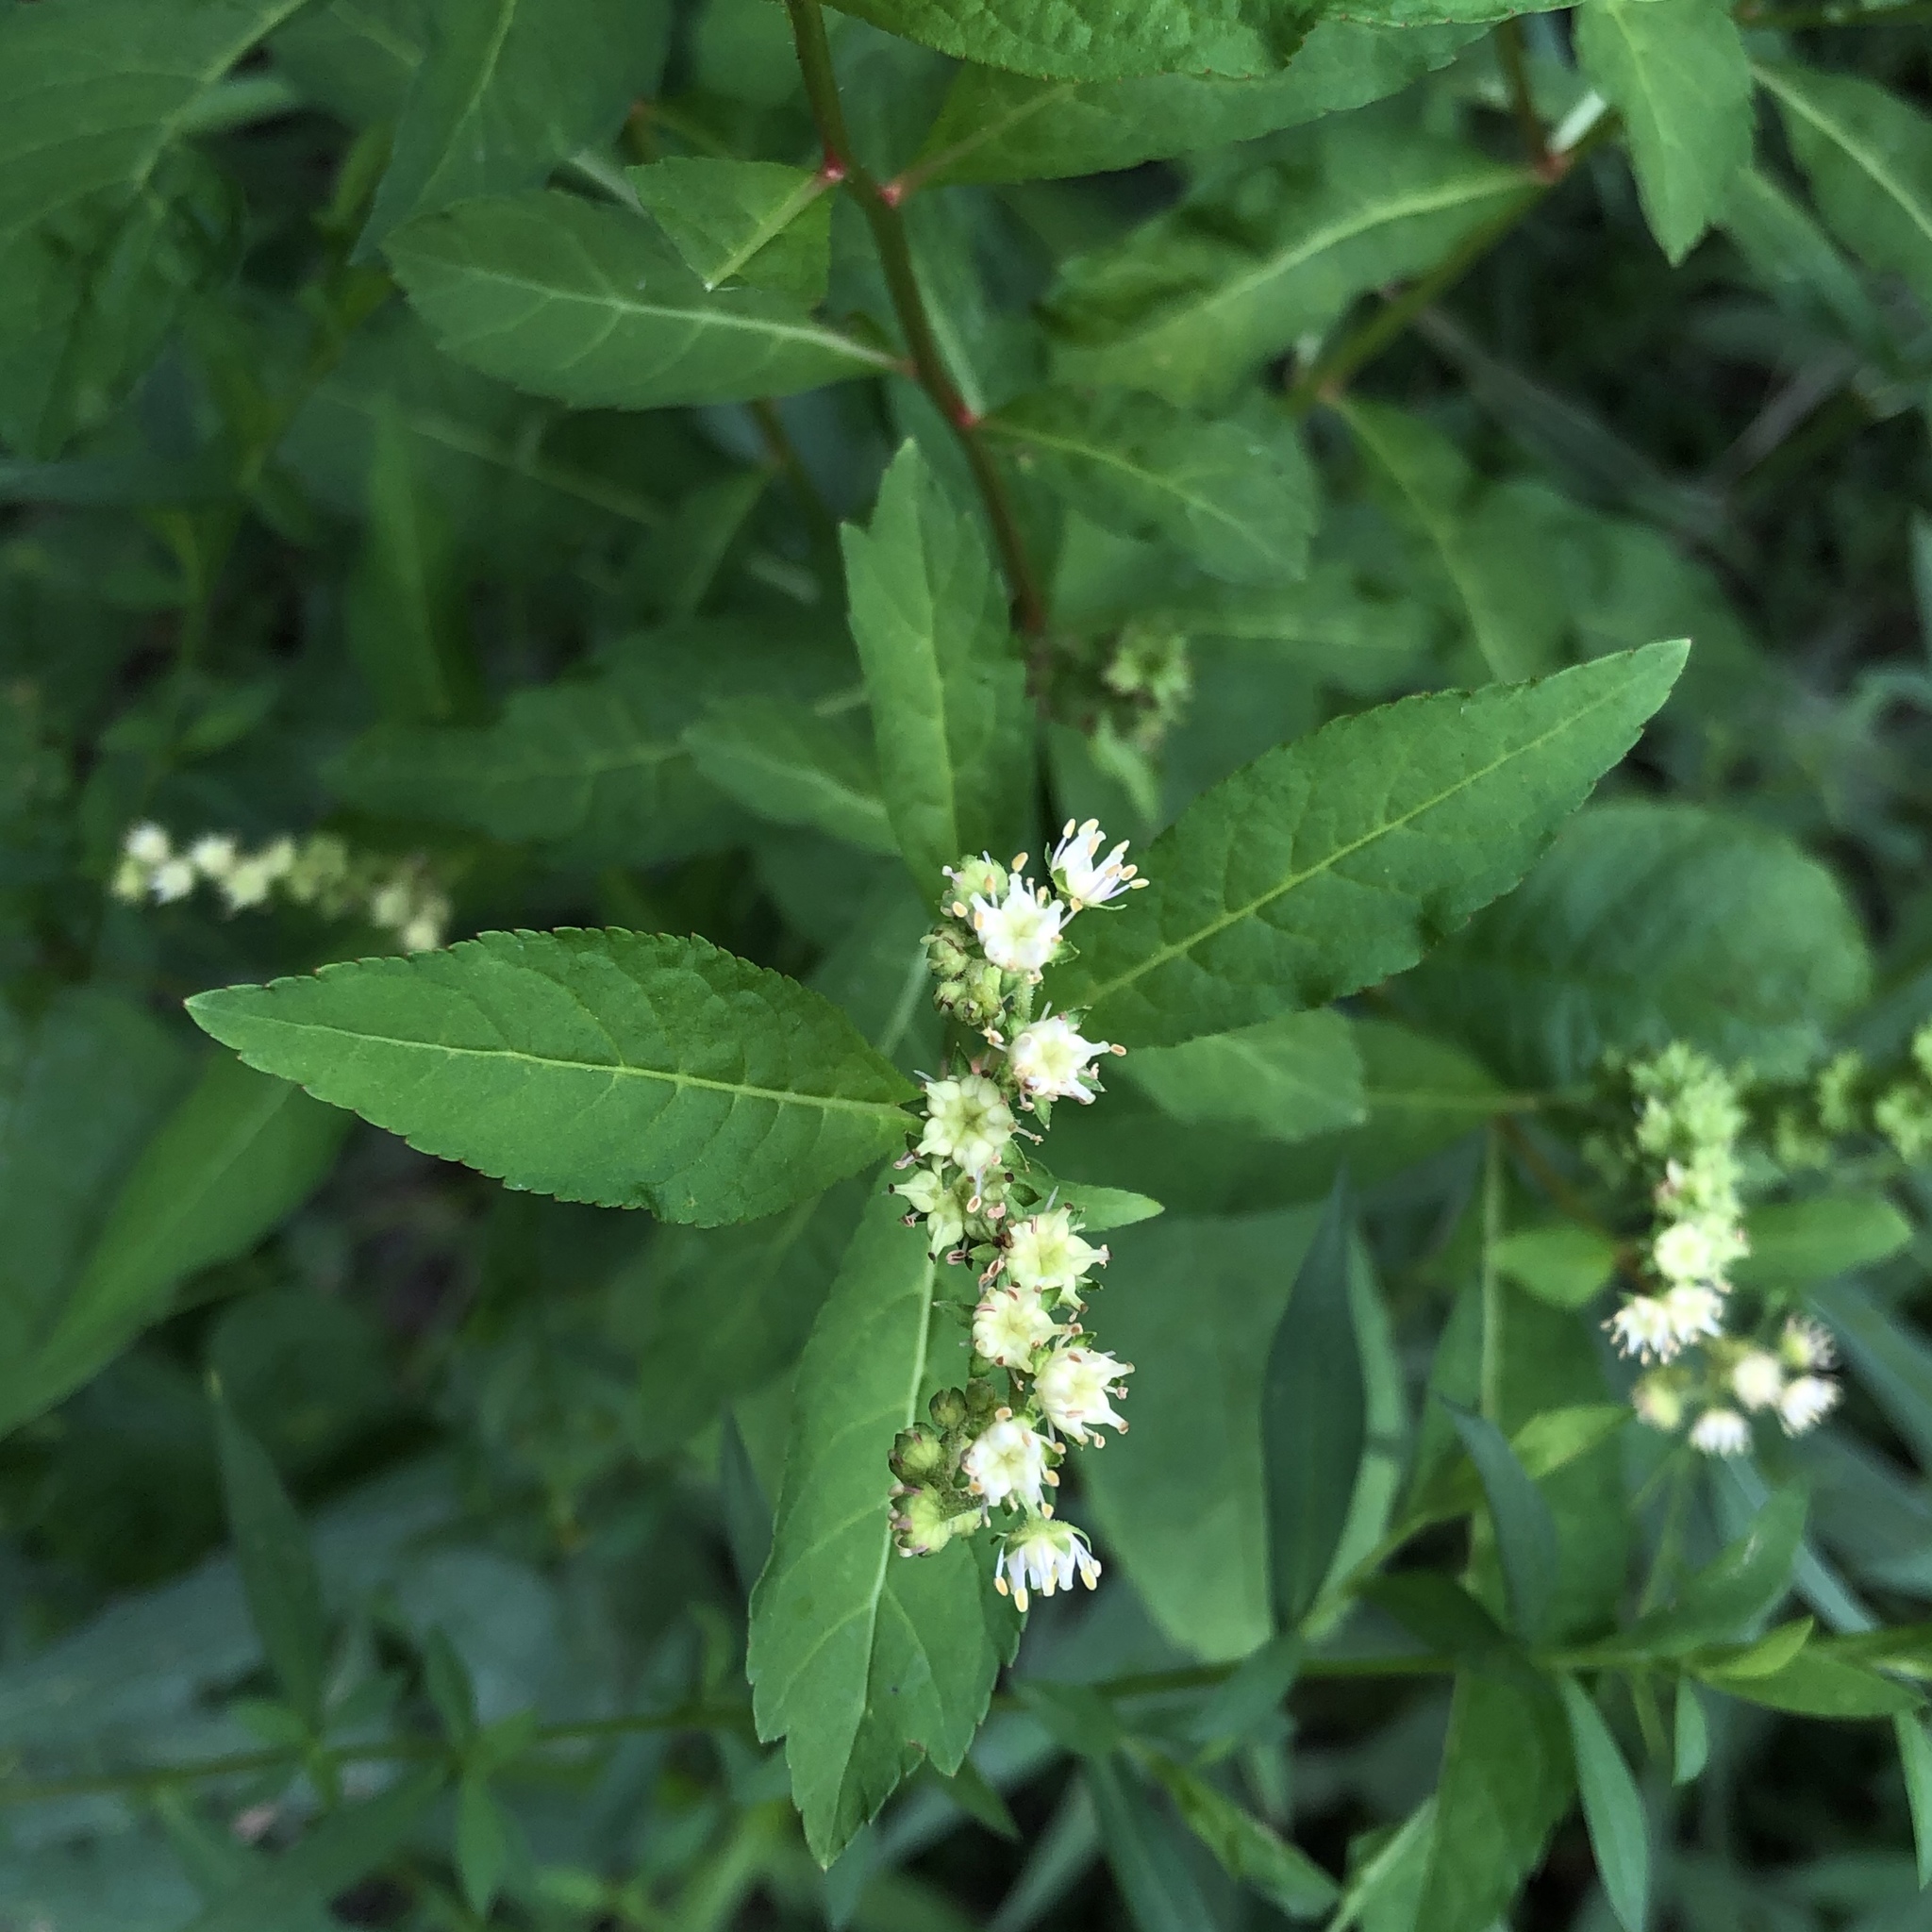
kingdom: Plantae
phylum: Tracheophyta
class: Magnoliopsida
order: Saxifragales
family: Penthoraceae
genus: Penthorum
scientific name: Penthorum sedoides
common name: Ditch stonecrop
